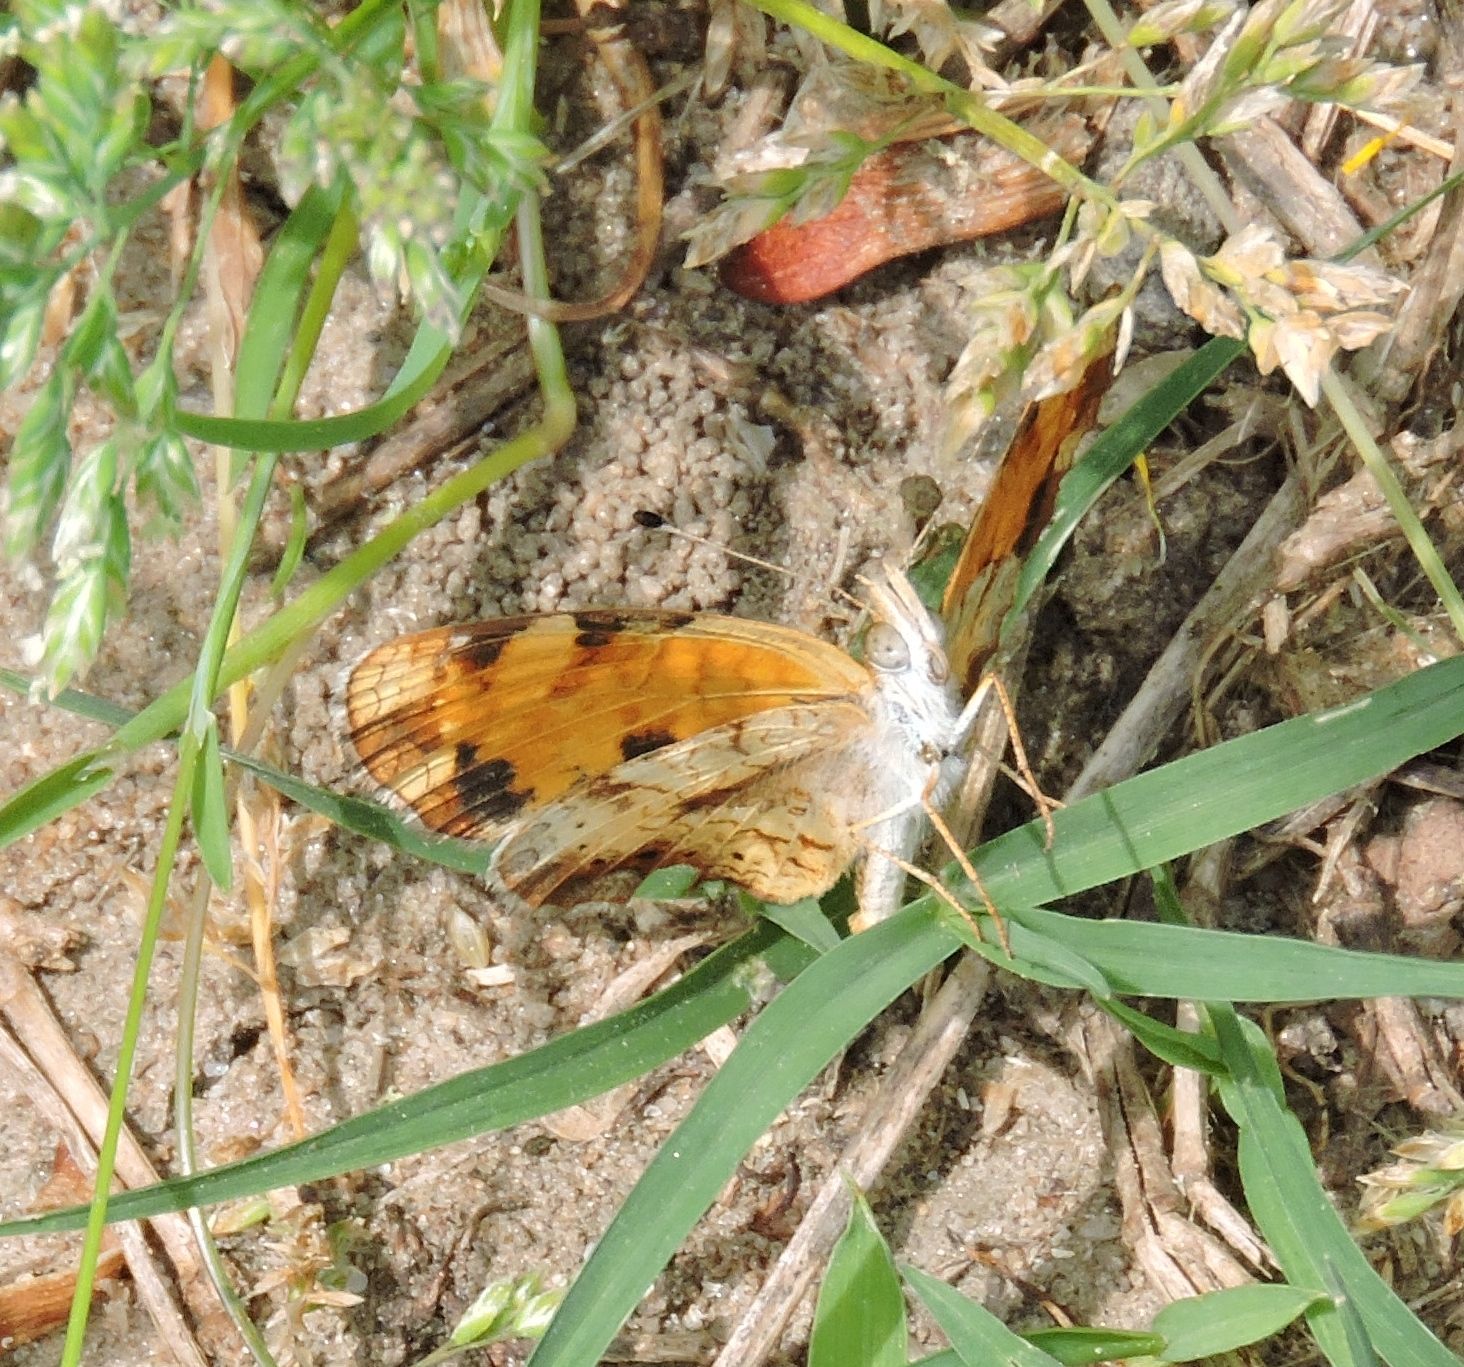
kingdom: Animalia
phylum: Arthropoda
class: Insecta
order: Lepidoptera
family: Nymphalidae
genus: Phyciodes
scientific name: Phyciodes tharos
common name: Pearl crescent
